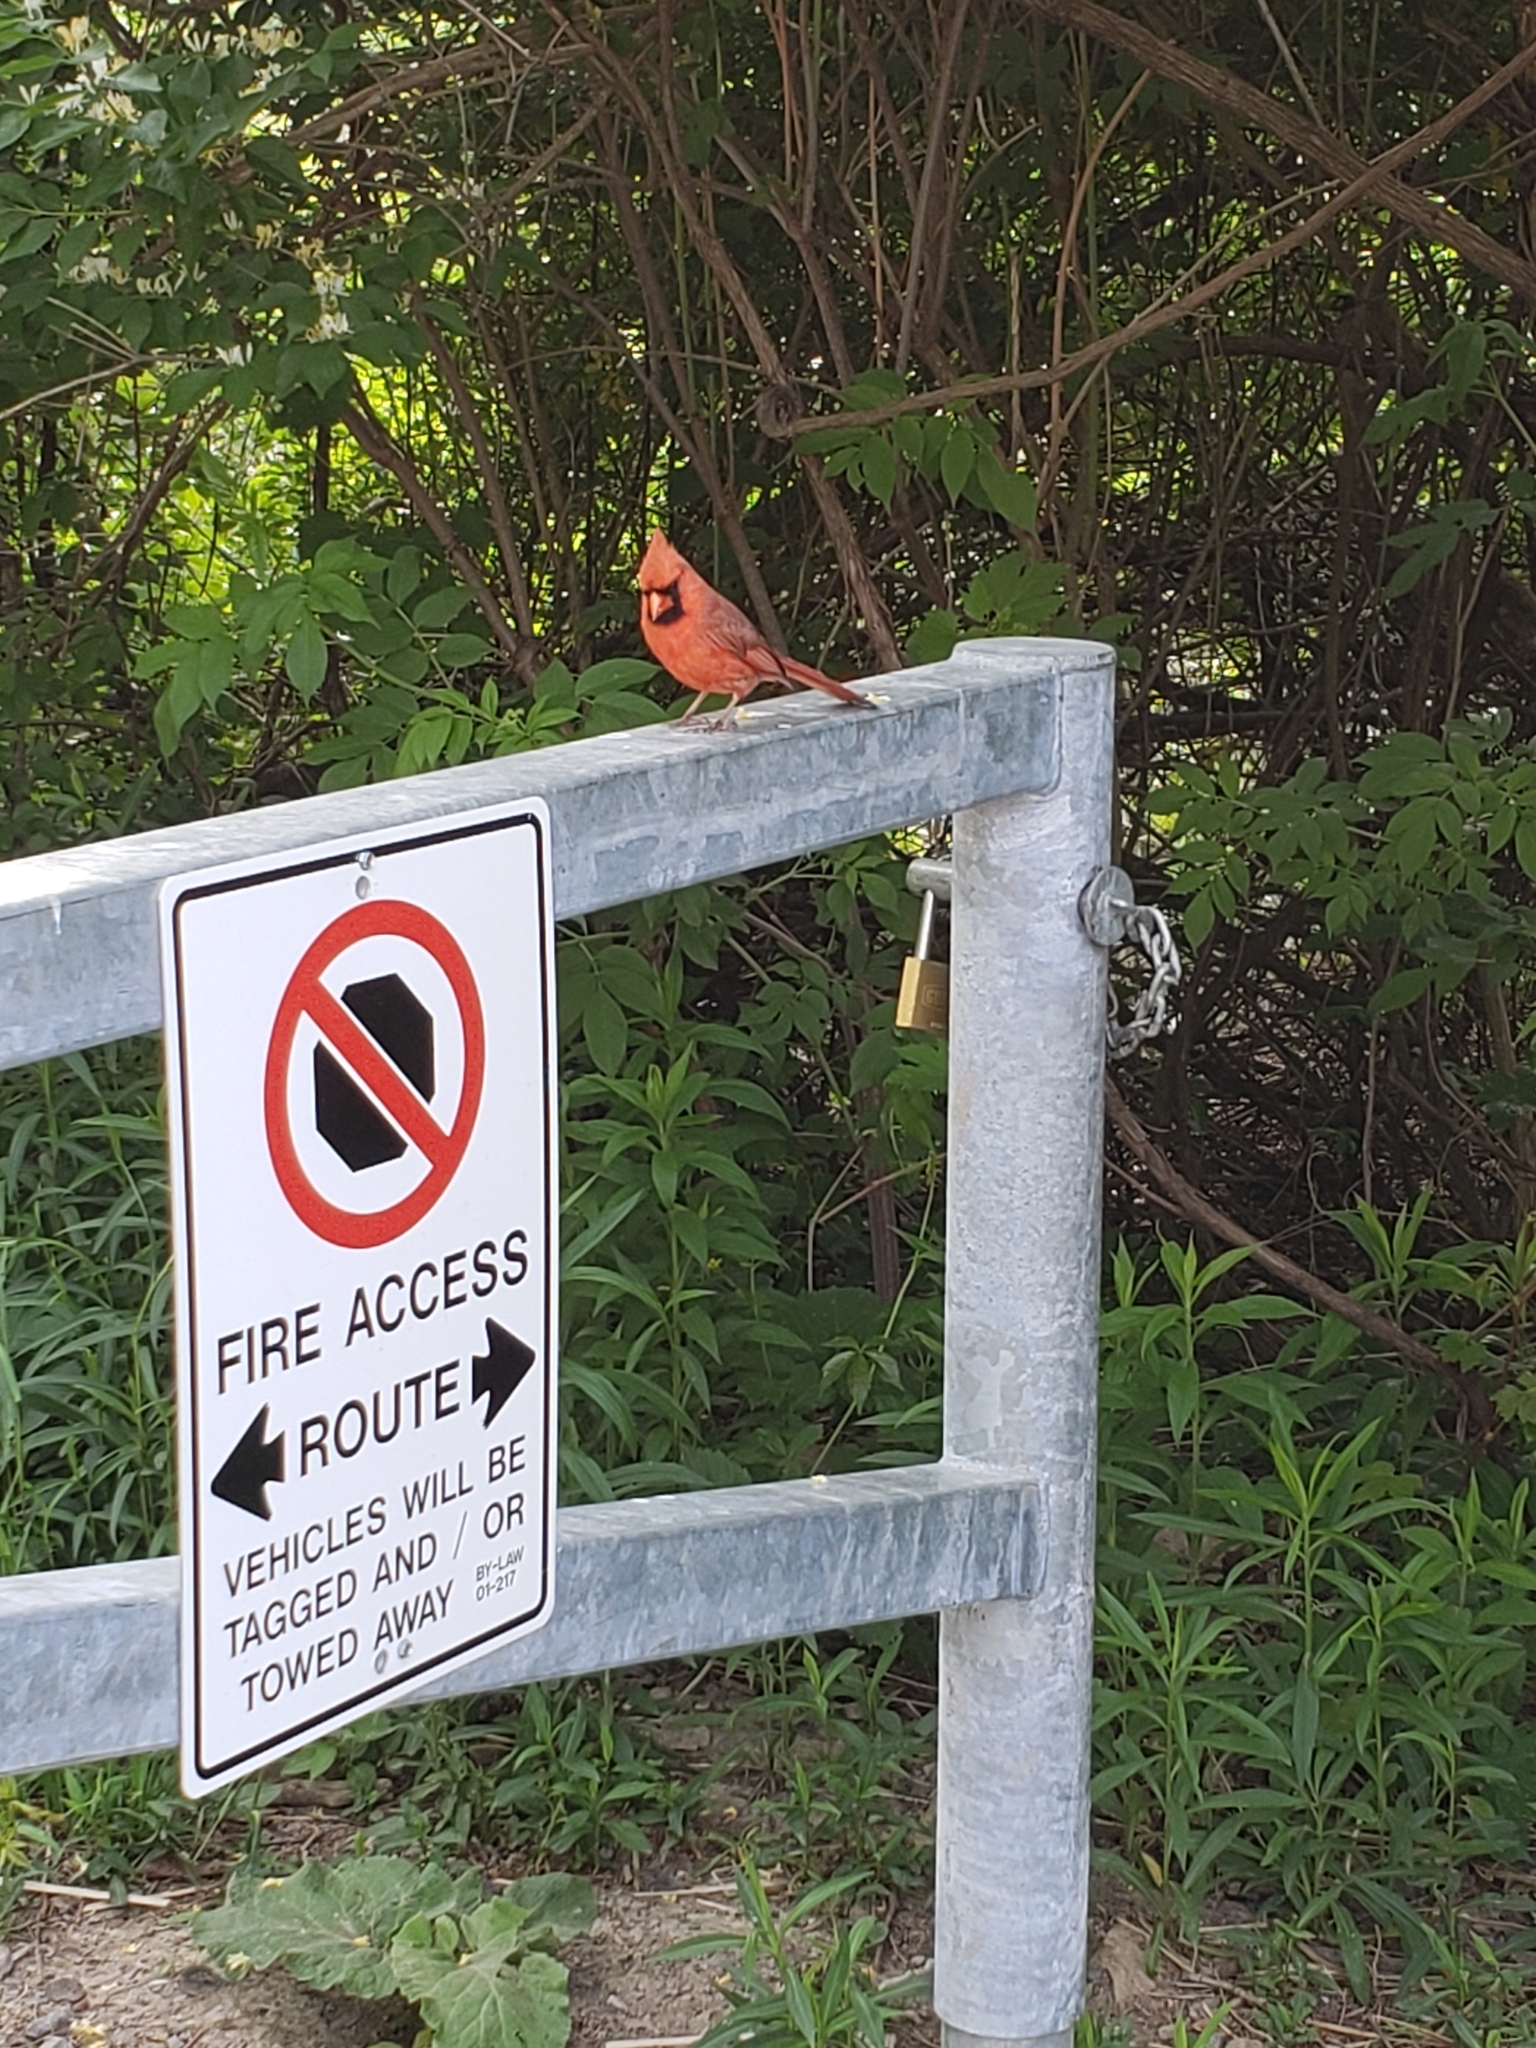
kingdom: Animalia
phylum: Chordata
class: Aves
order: Passeriformes
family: Cardinalidae
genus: Cardinalis
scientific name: Cardinalis cardinalis
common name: Northern cardinal
